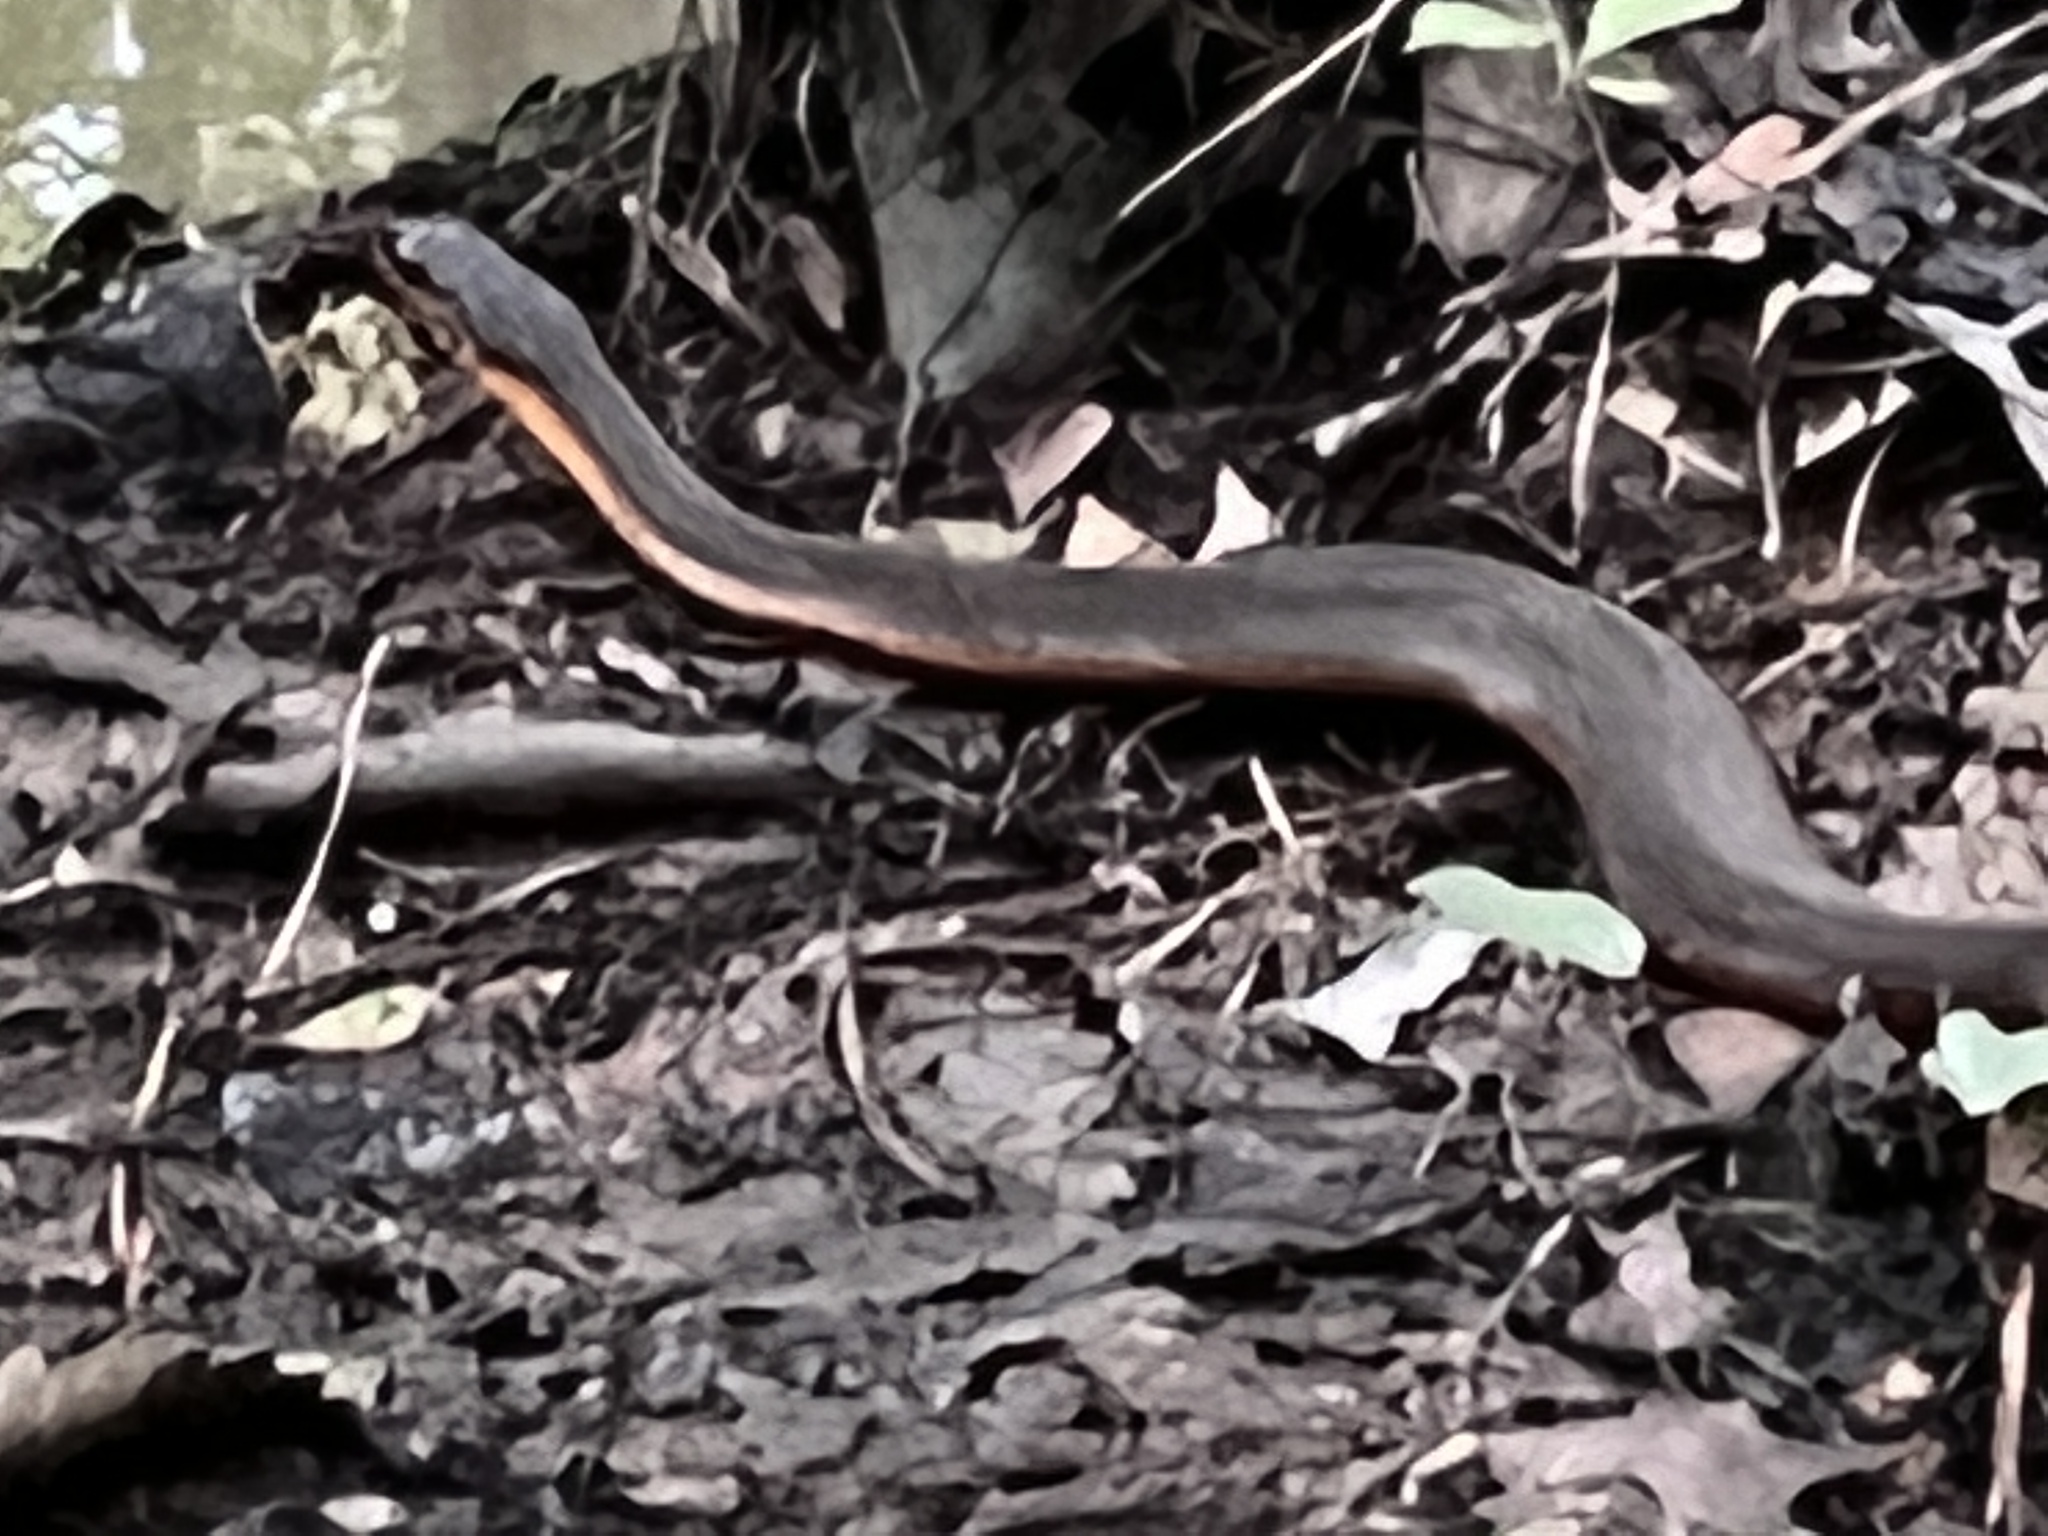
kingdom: Animalia
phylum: Chordata
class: Squamata
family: Colubridae
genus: Nerodia
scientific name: Nerodia erythrogaster
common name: Plainbelly water snake
